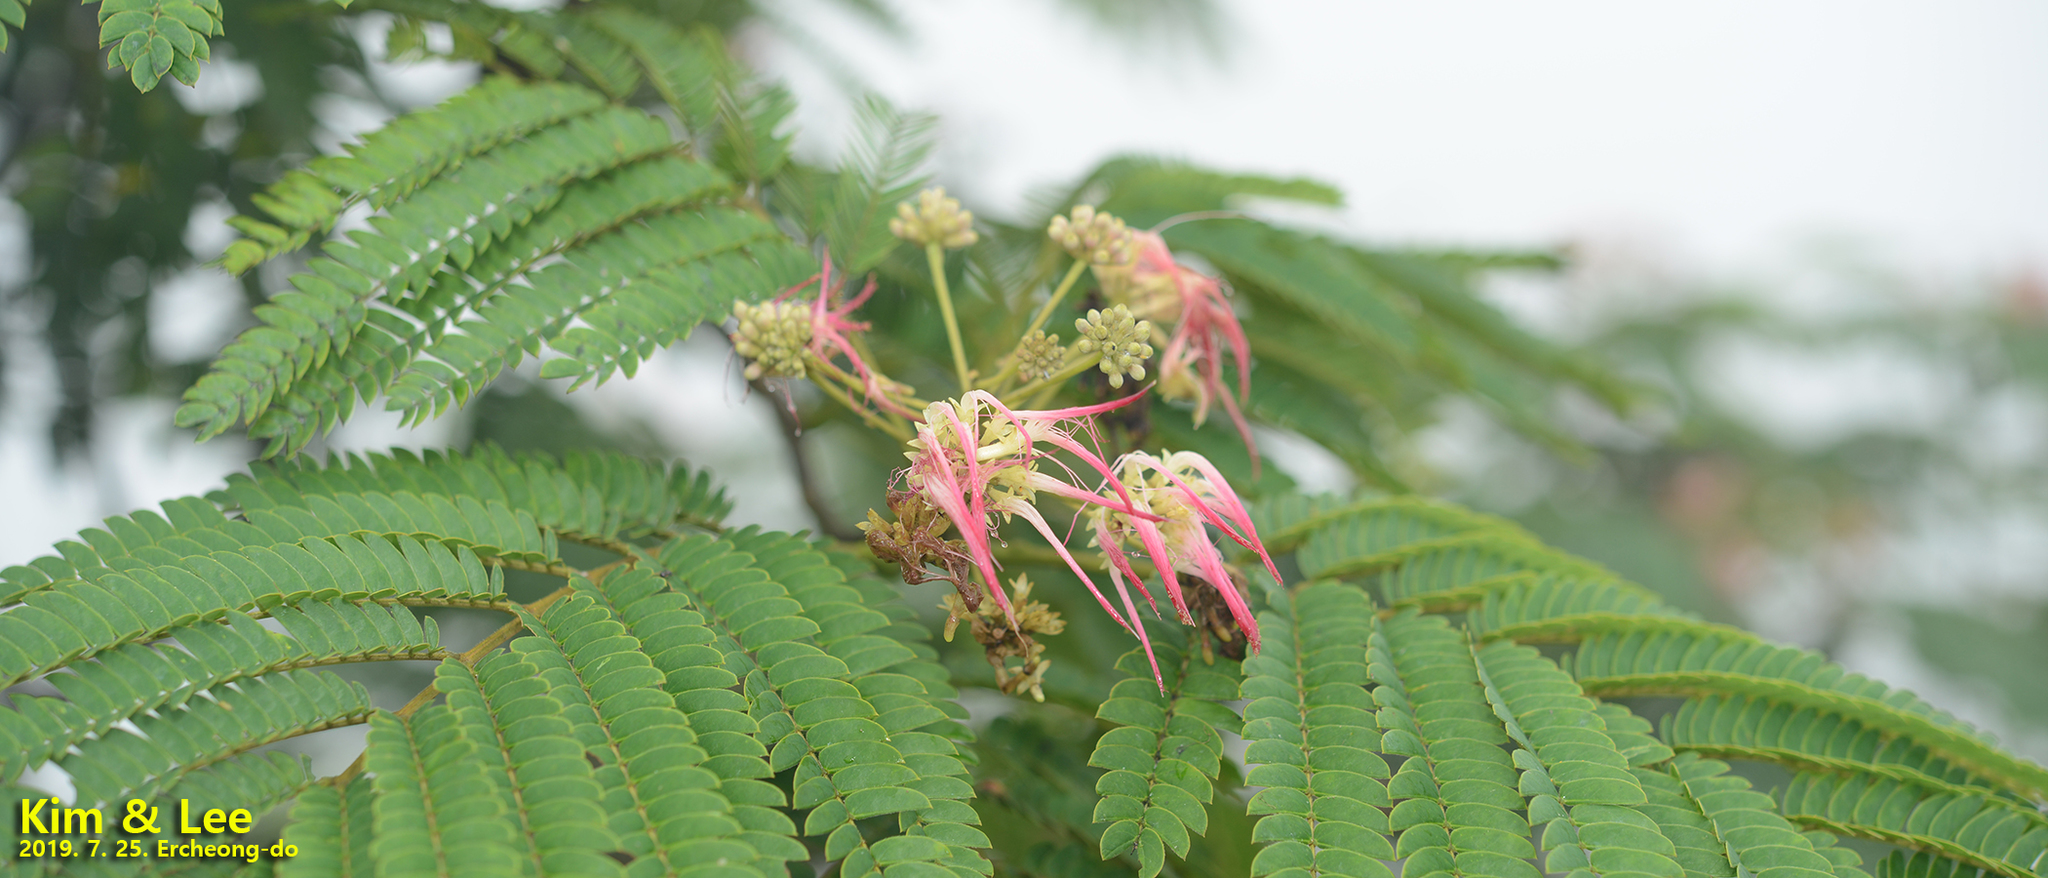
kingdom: Plantae
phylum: Tracheophyta
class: Magnoliopsida
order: Fabales
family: Fabaceae
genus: Albizia
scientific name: Albizia julibrissin
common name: Silktree
